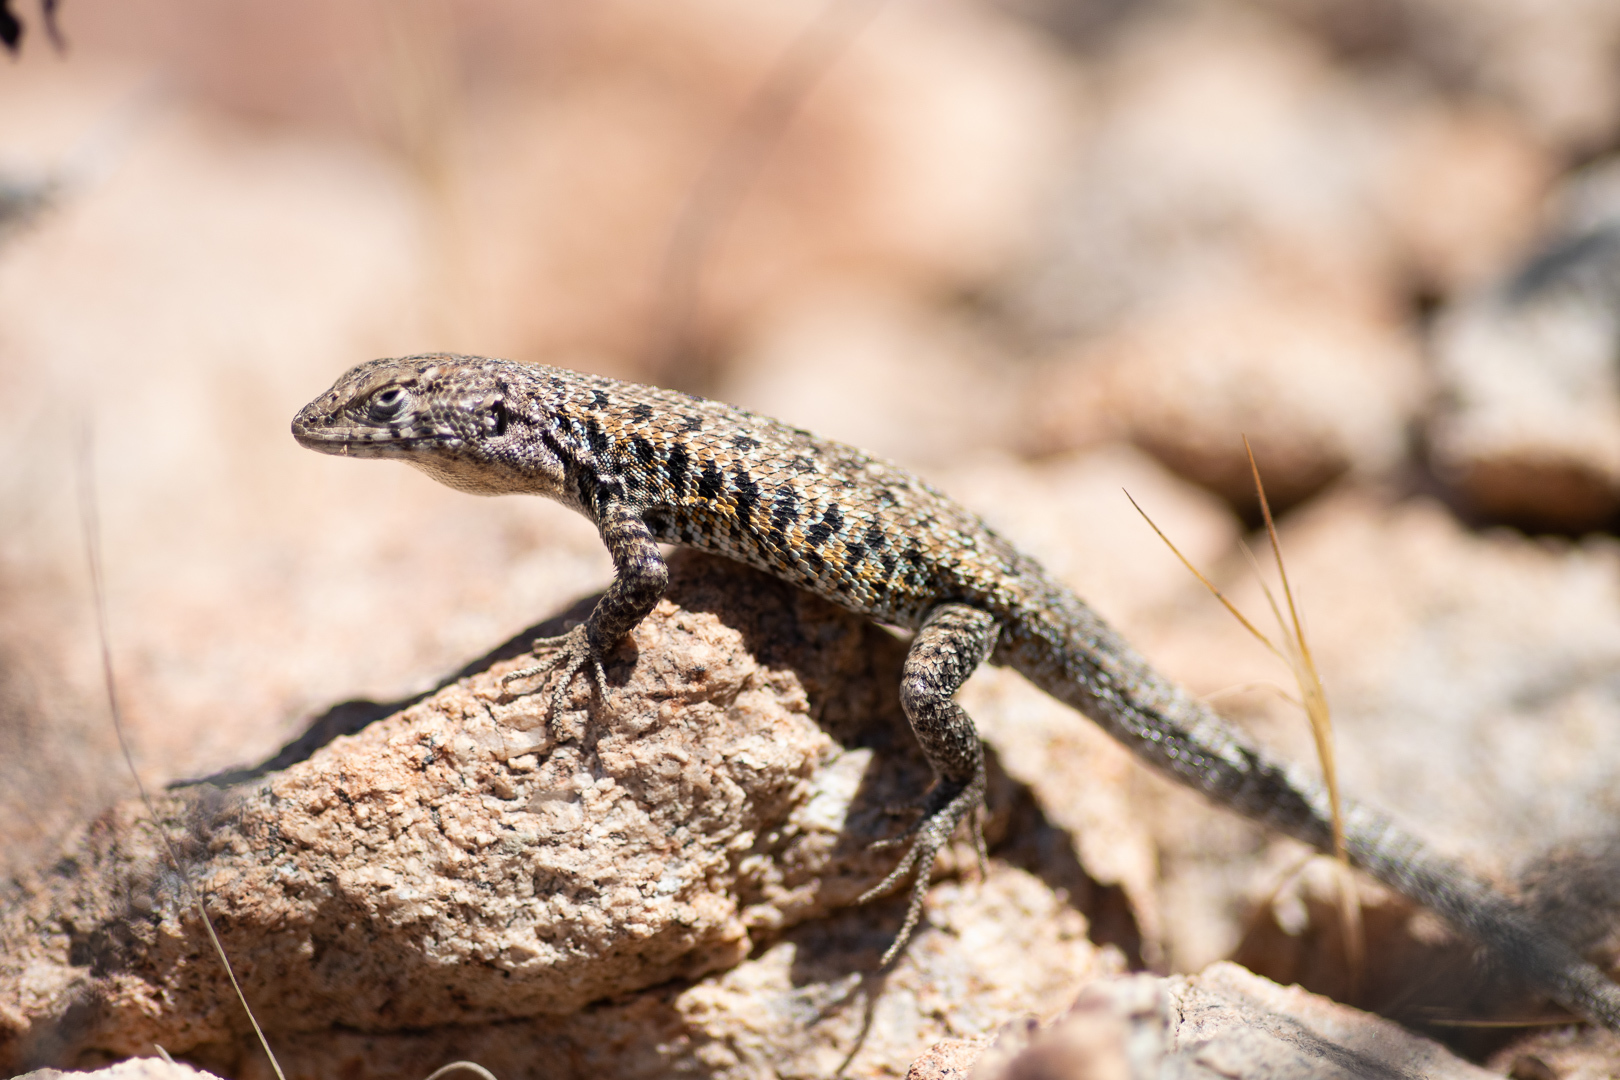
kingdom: Animalia
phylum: Chordata
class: Squamata
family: Liolaemidae
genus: Liolaemus
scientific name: Liolaemus platei
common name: Braided tree iguana
